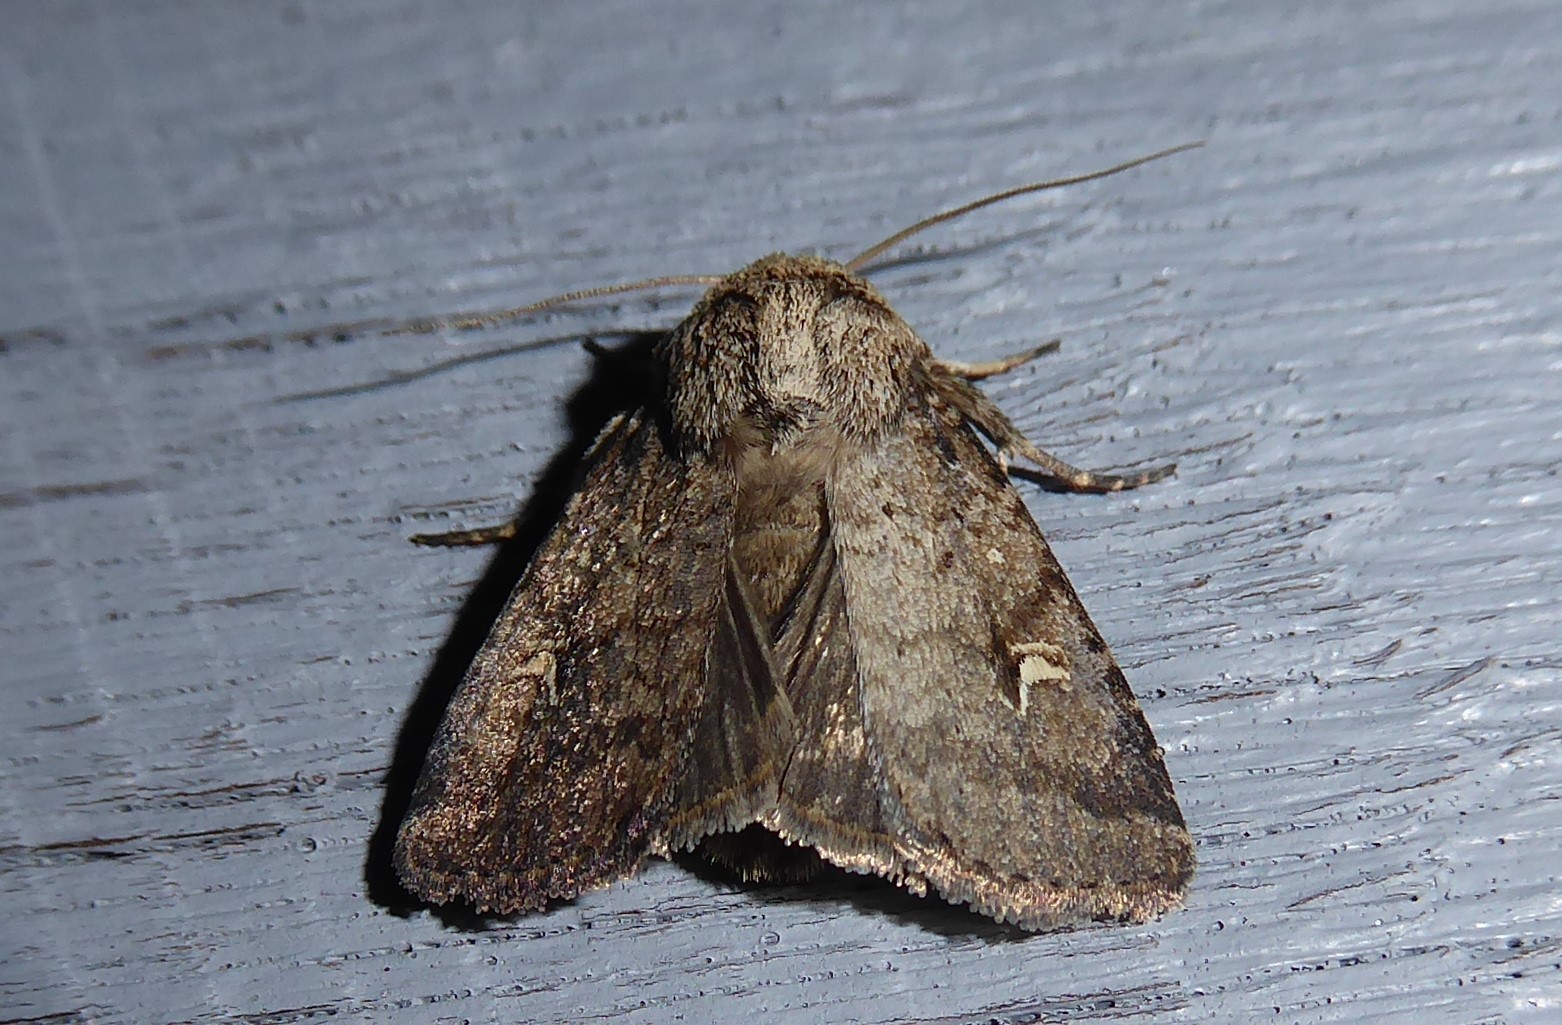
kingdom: Animalia
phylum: Arthropoda
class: Insecta
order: Lepidoptera
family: Noctuidae
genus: Proteuxoa
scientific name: Proteuxoa tetronycha
